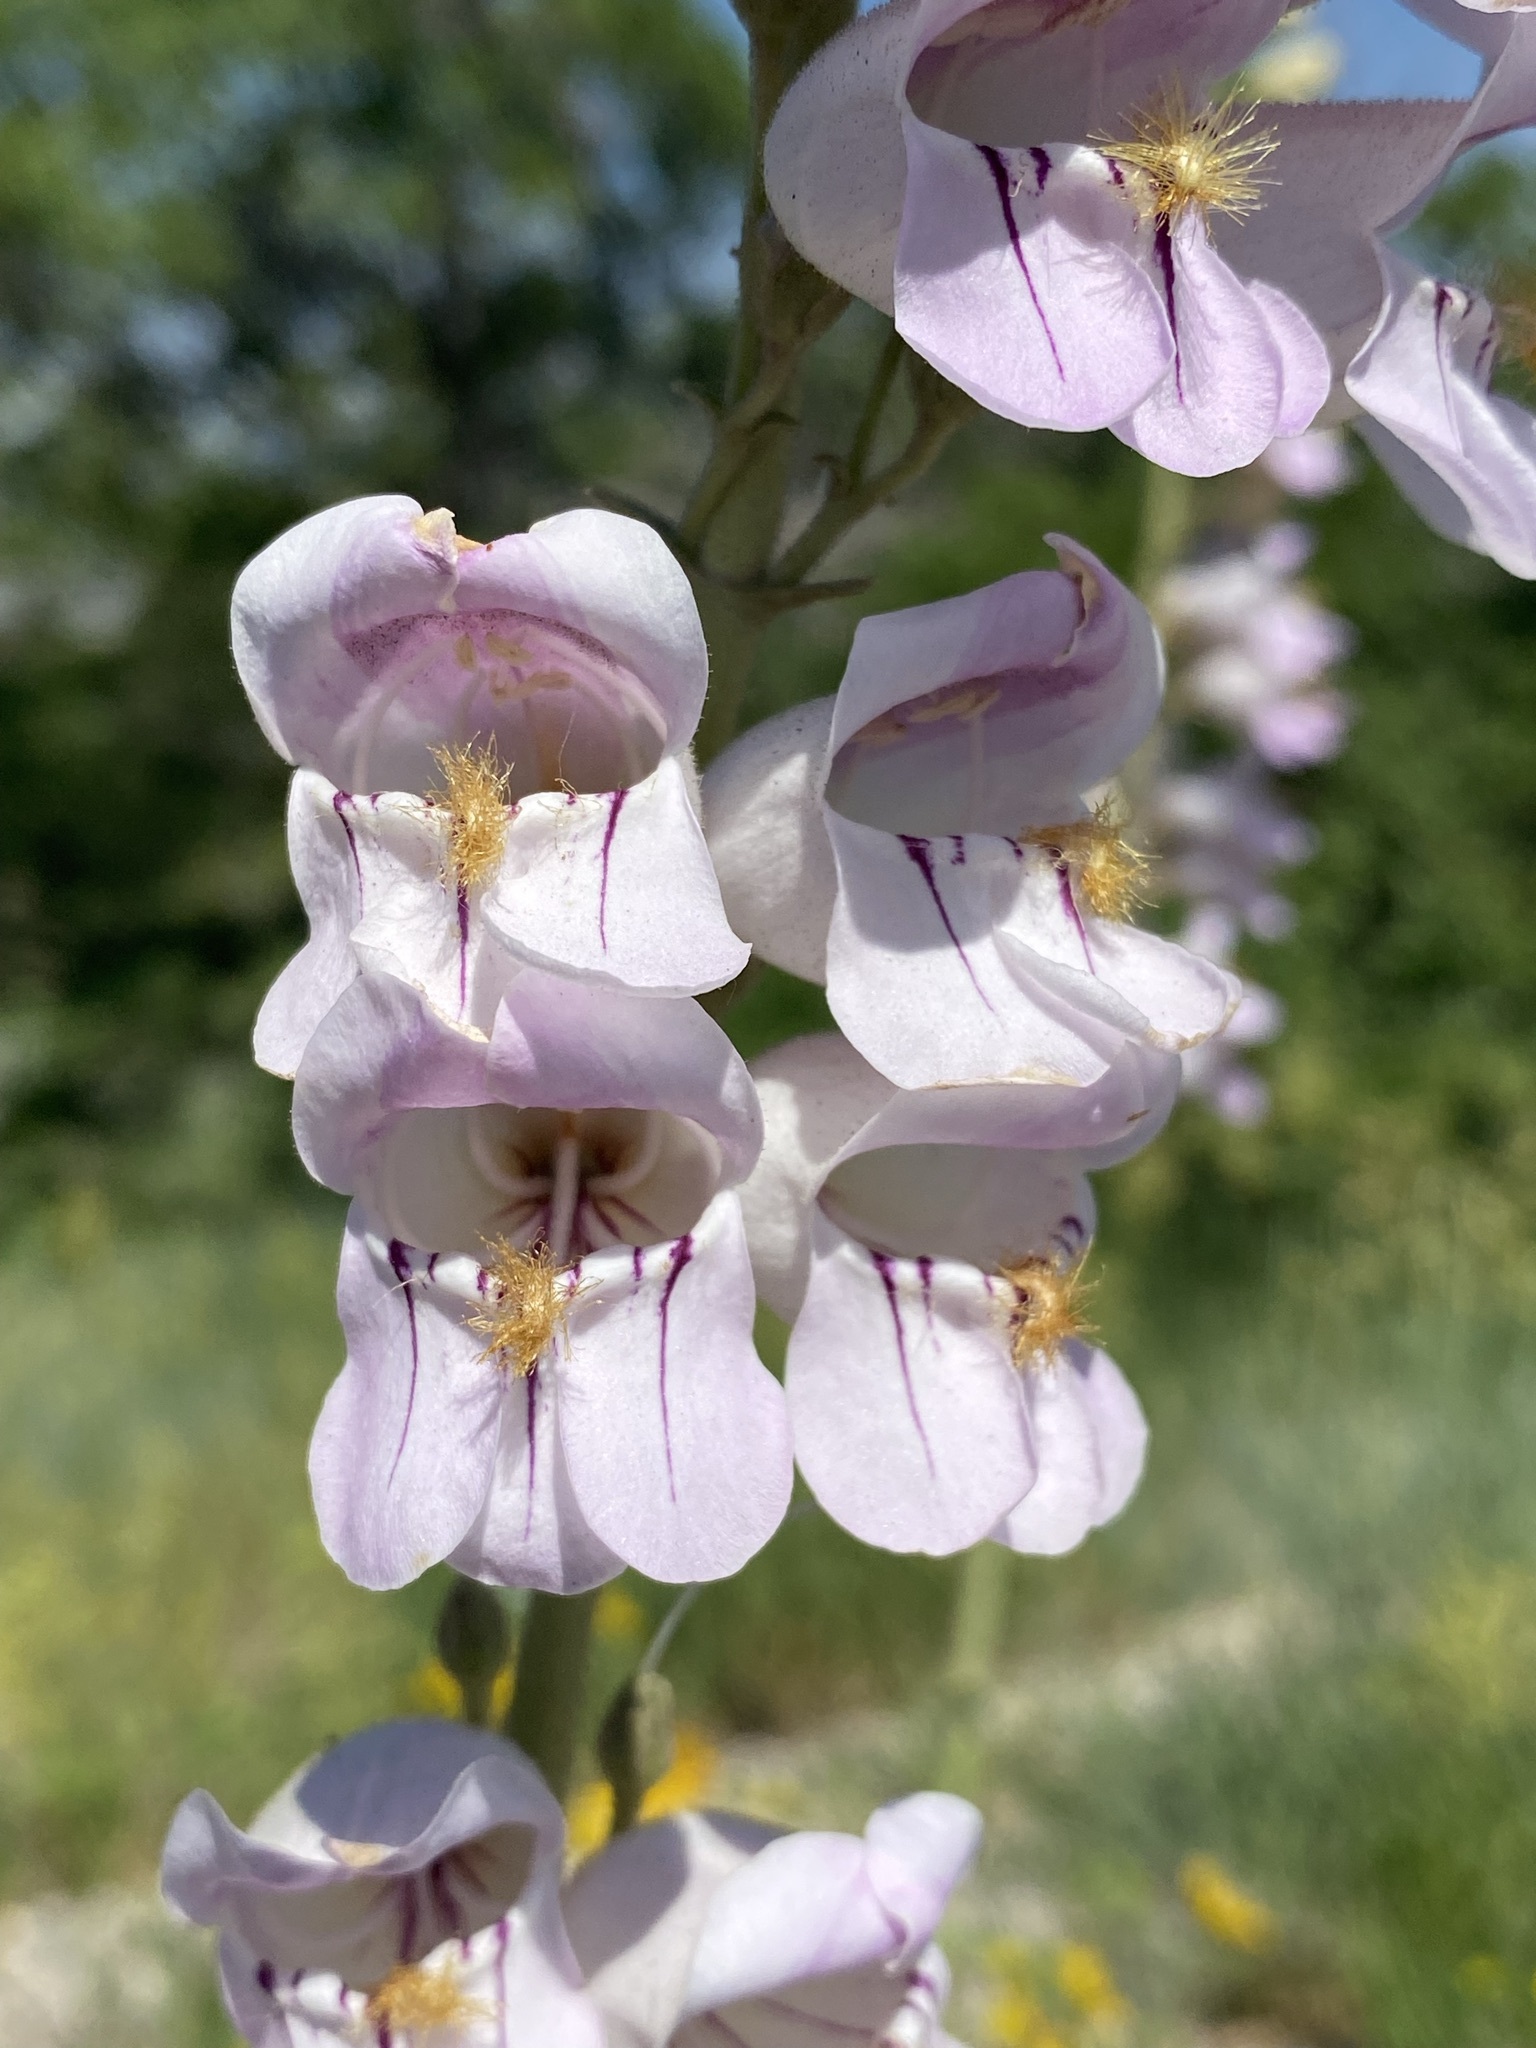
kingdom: Plantae
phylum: Tracheophyta
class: Magnoliopsida
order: Lamiales
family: Plantaginaceae
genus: Penstemon
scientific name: Penstemon palmeri
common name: Palmer penstemon
